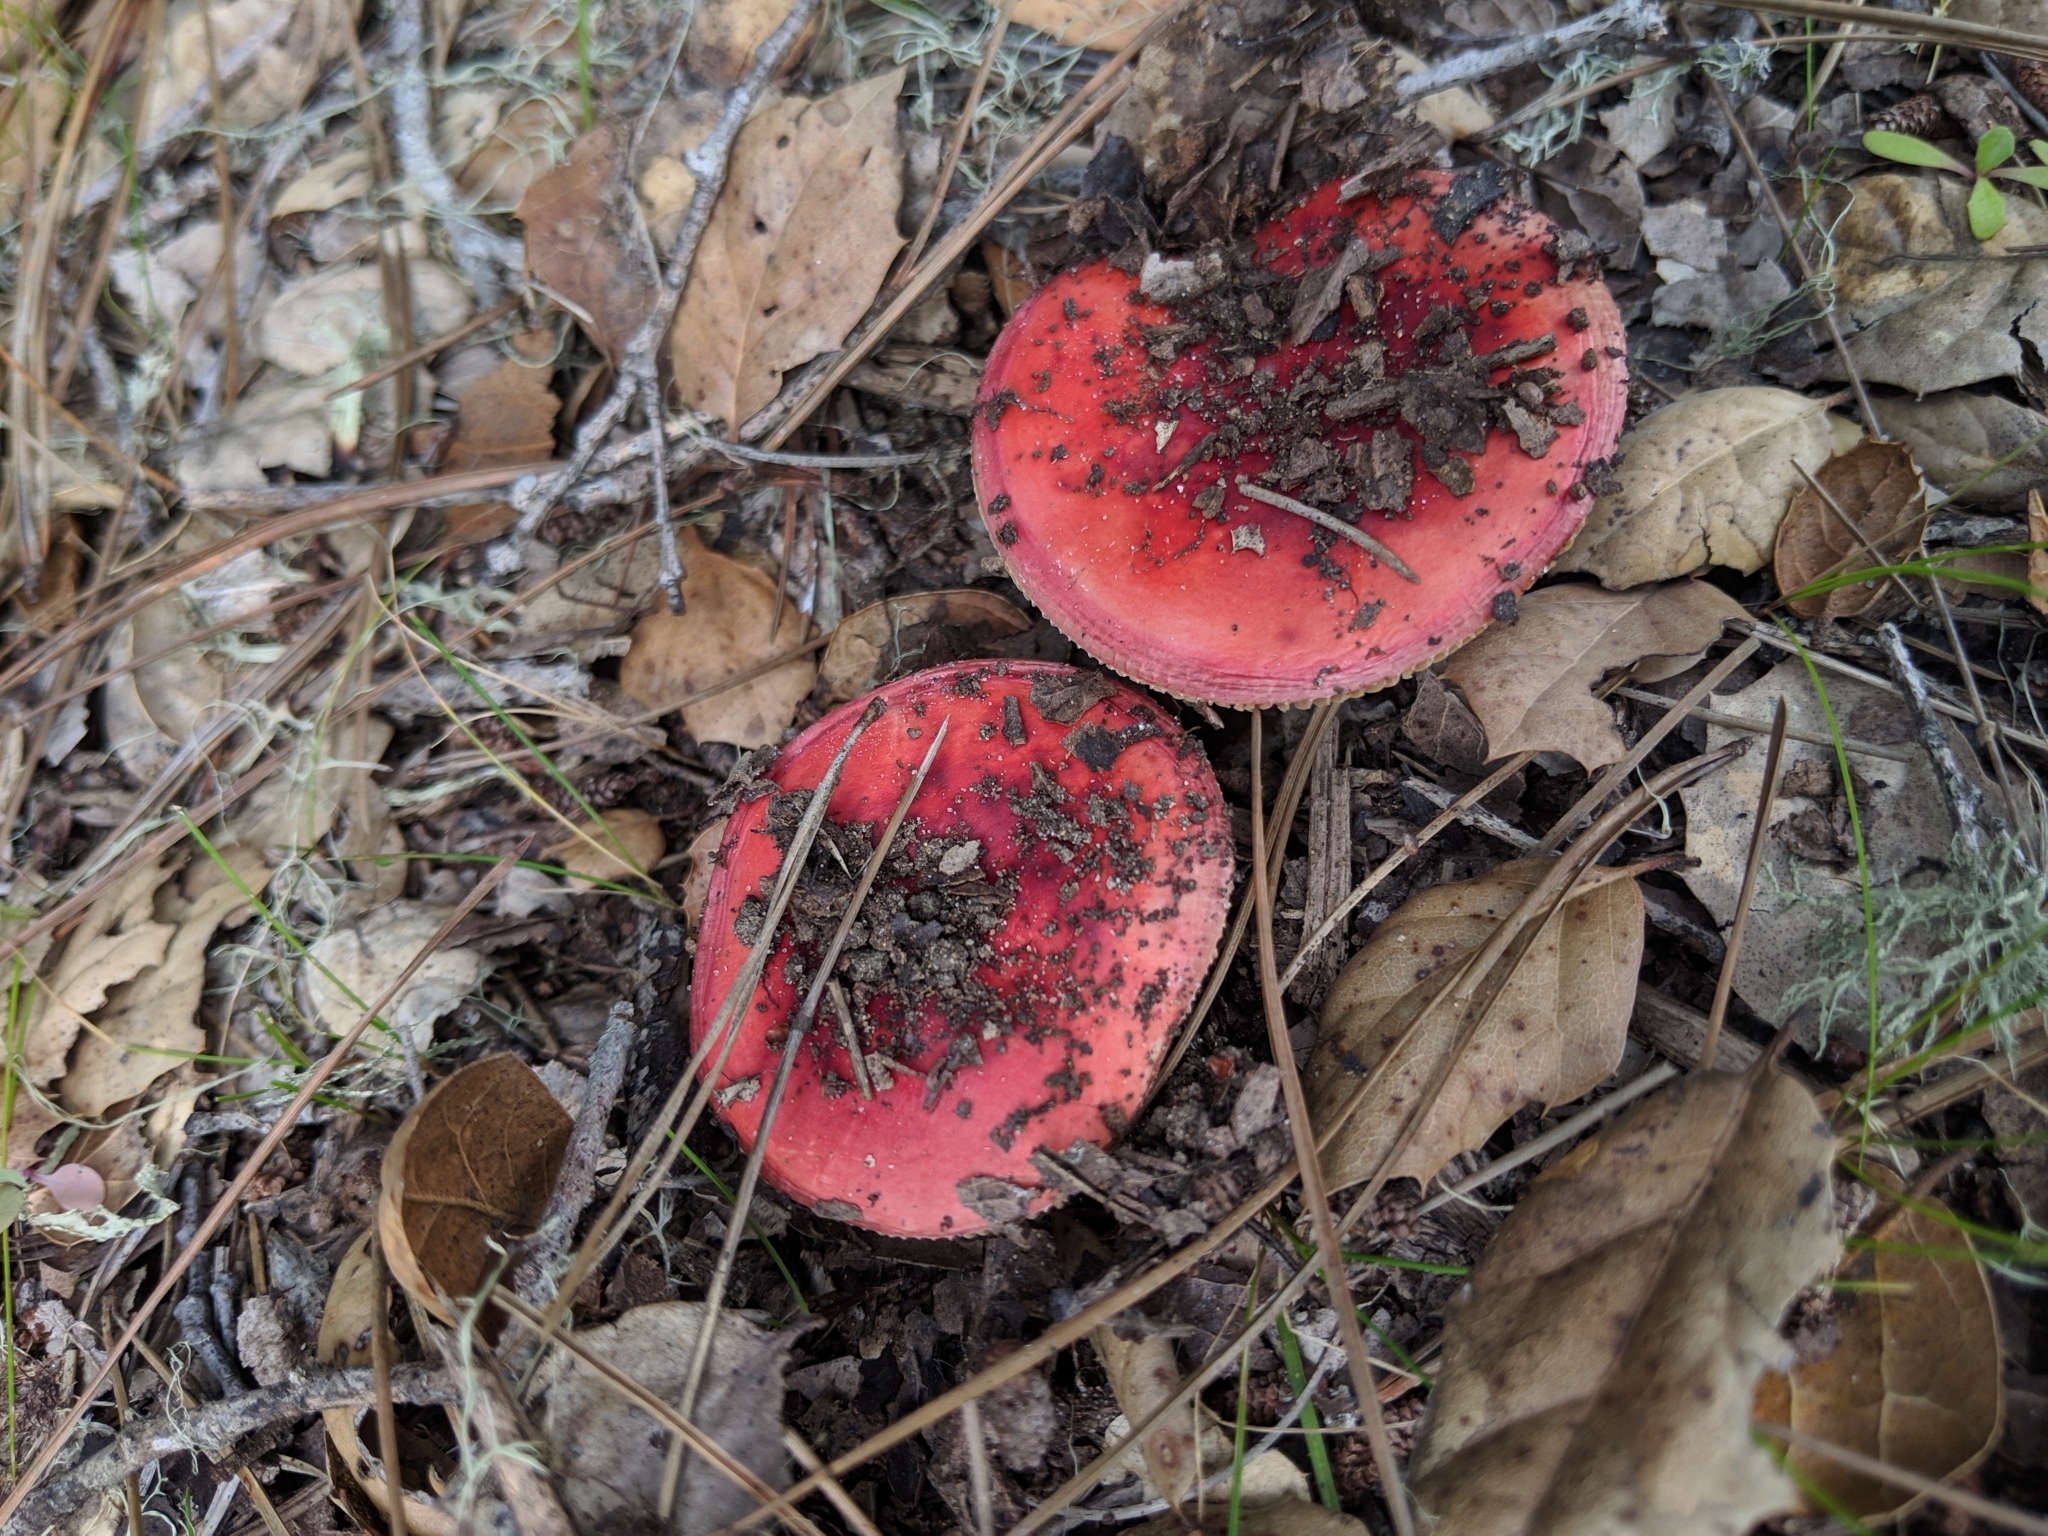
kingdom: Fungi
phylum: Basidiomycota
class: Agaricomycetes
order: Russulales
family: Russulaceae
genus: Russula
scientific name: Russula californiensis
